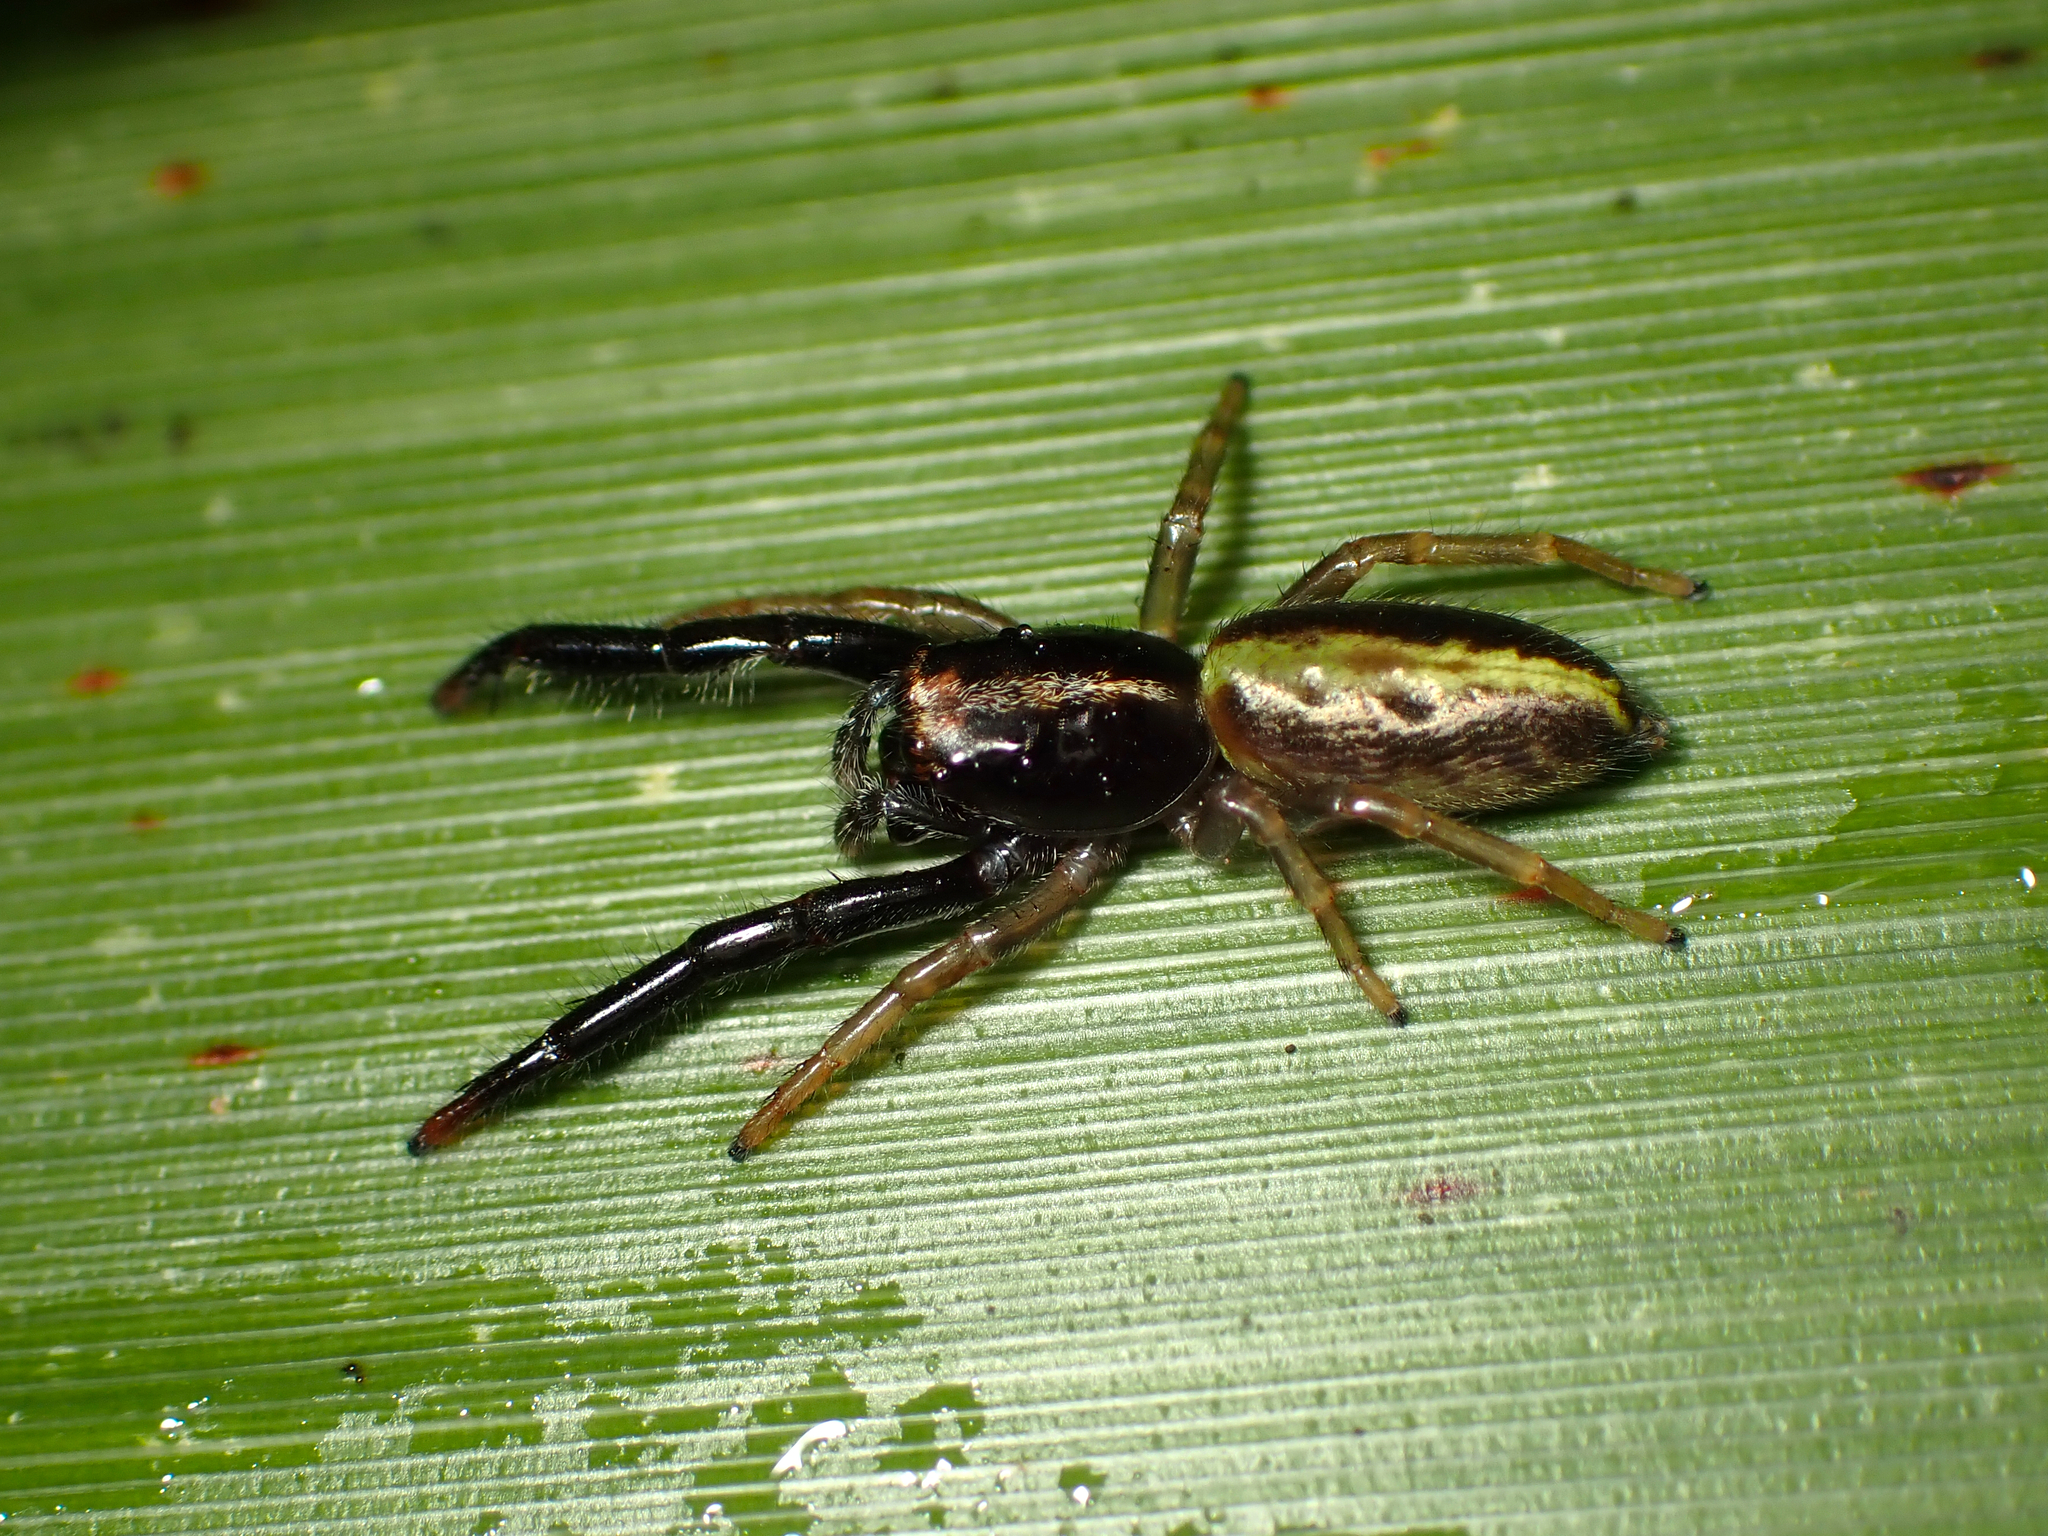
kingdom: Animalia
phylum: Arthropoda
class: Arachnida
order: Araneae
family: Salticidae
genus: Trite
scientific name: Trite planiceps
